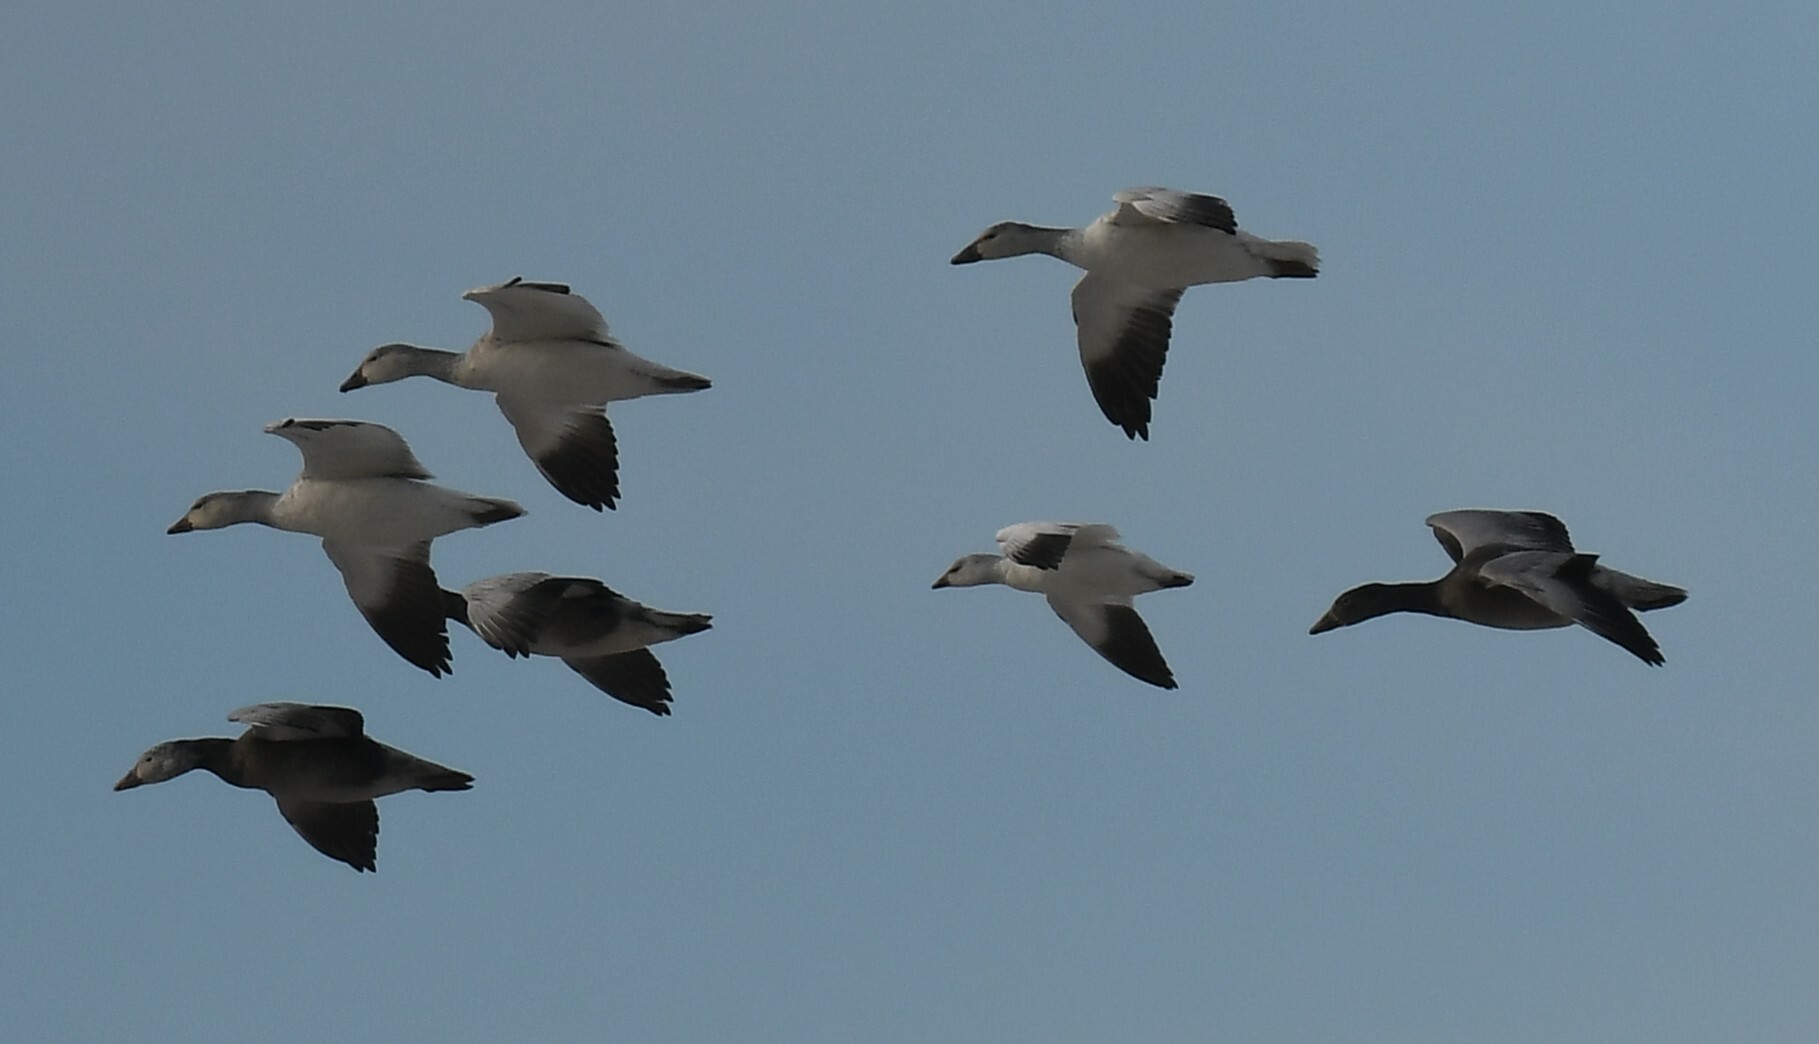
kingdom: Animalia
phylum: Chordata
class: Aves
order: Anseriformes
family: Anatidae
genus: Anser
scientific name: Anser rossii
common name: Ross's goose
